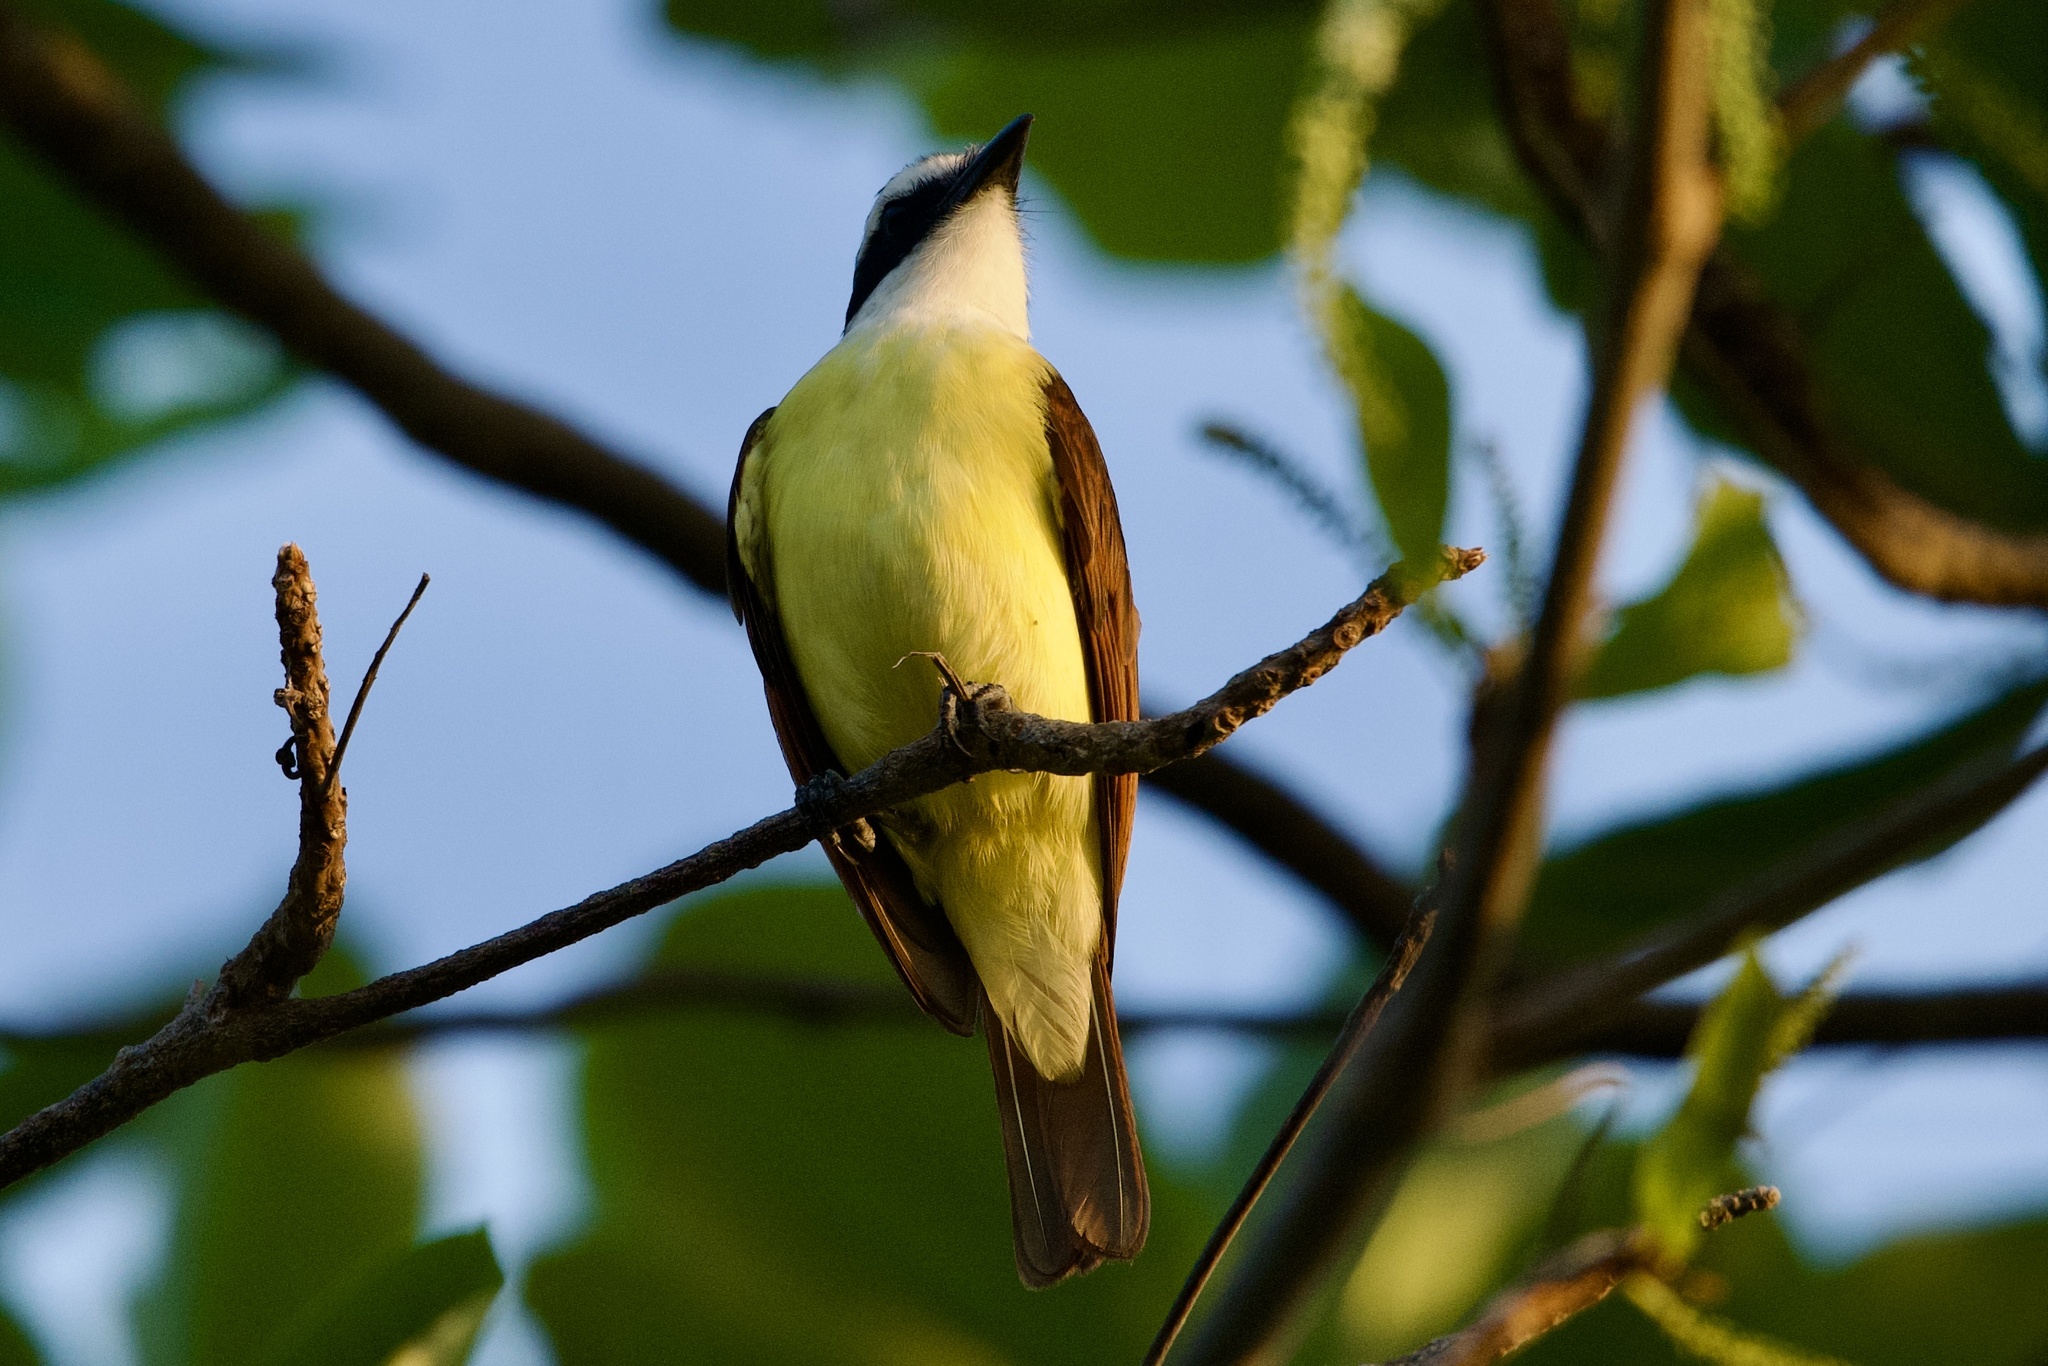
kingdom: Animalia
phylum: Chordata
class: Aves
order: Passeriformes
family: Tyrannidae
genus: Pitangus
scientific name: Pitangus sulphuratus
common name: Great kiskadee
